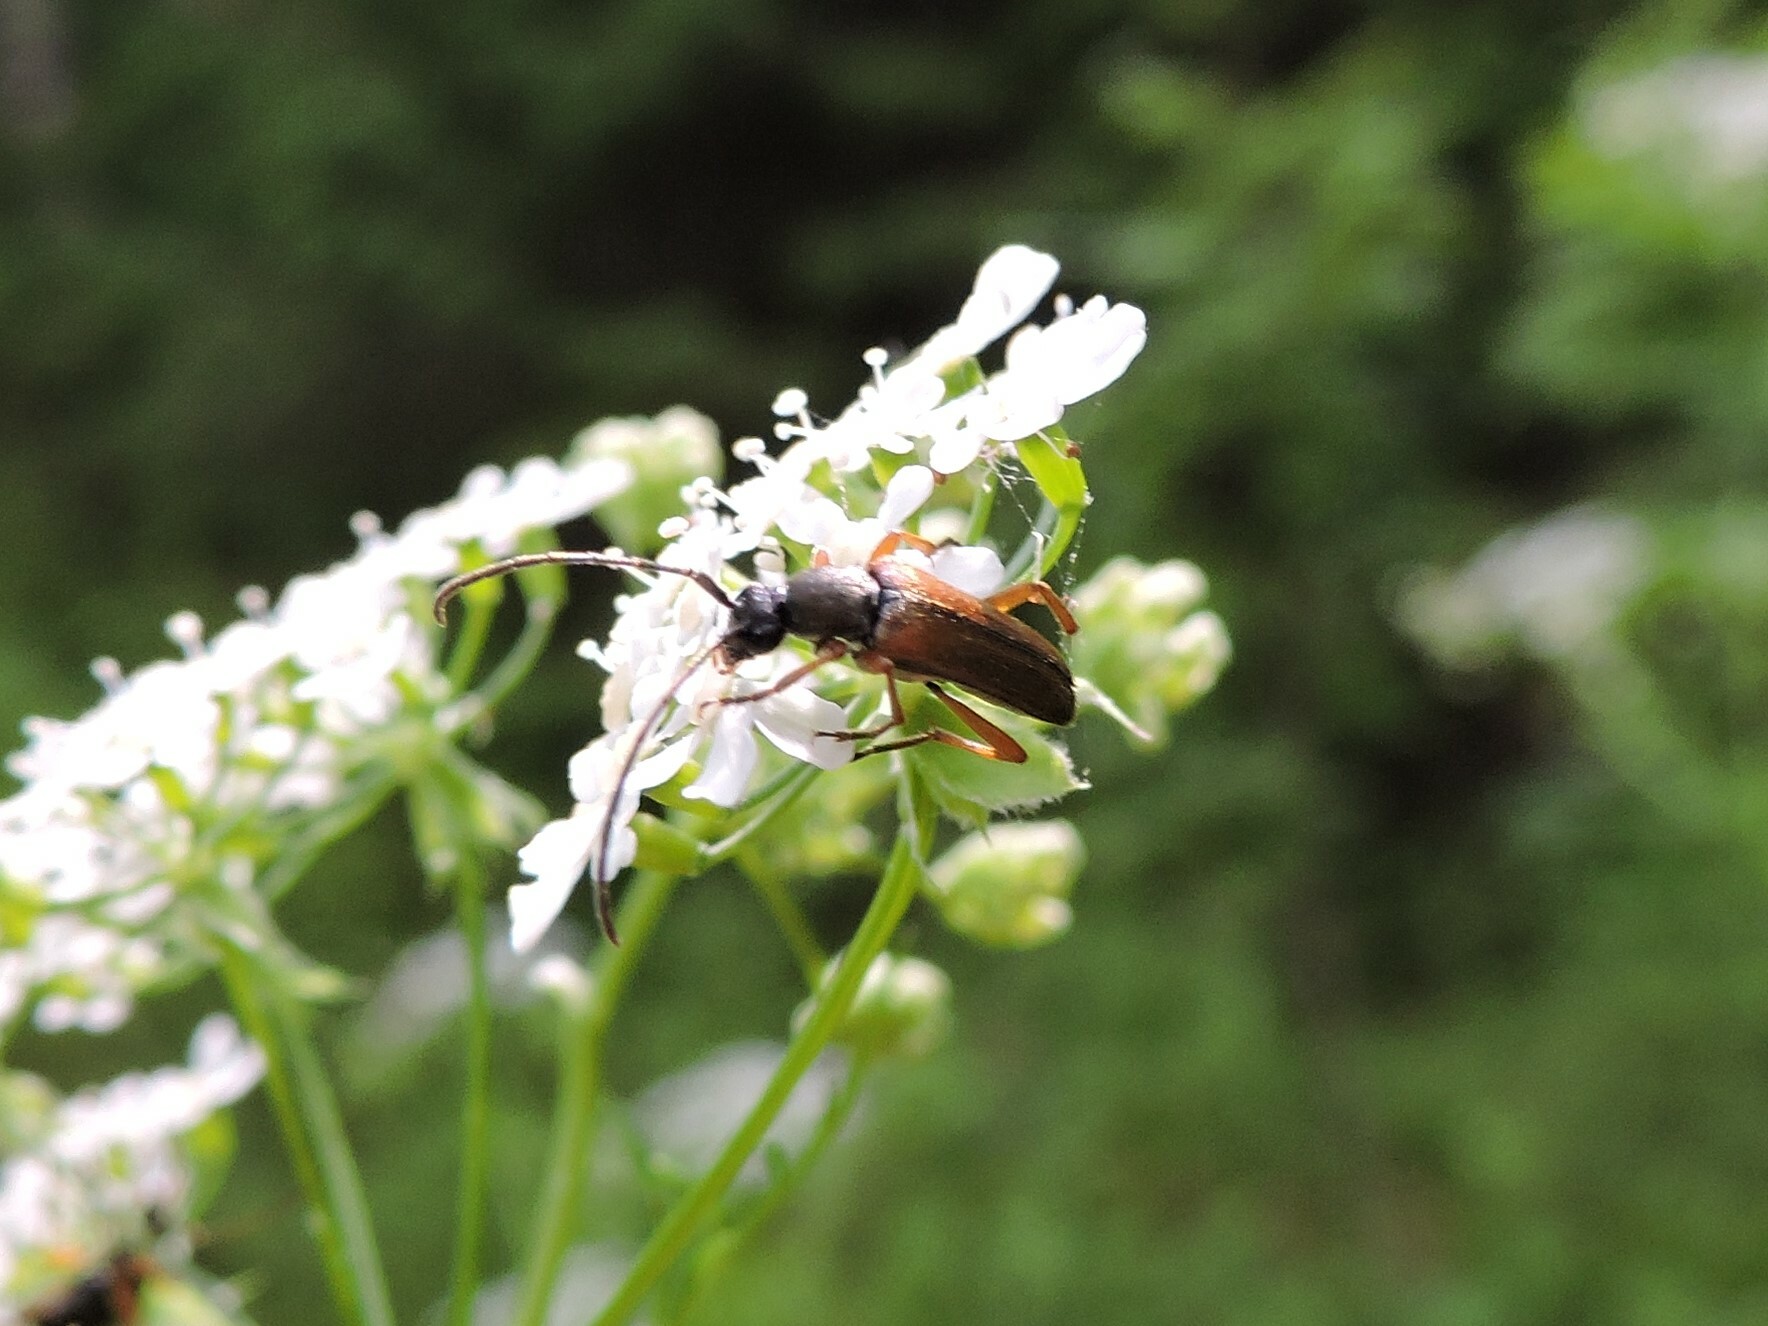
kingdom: Animalia
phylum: Arthropoda
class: Insecta
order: Coleoptera
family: Cerambycidae
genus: Alosterna
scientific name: Alosterna tabacicolor
